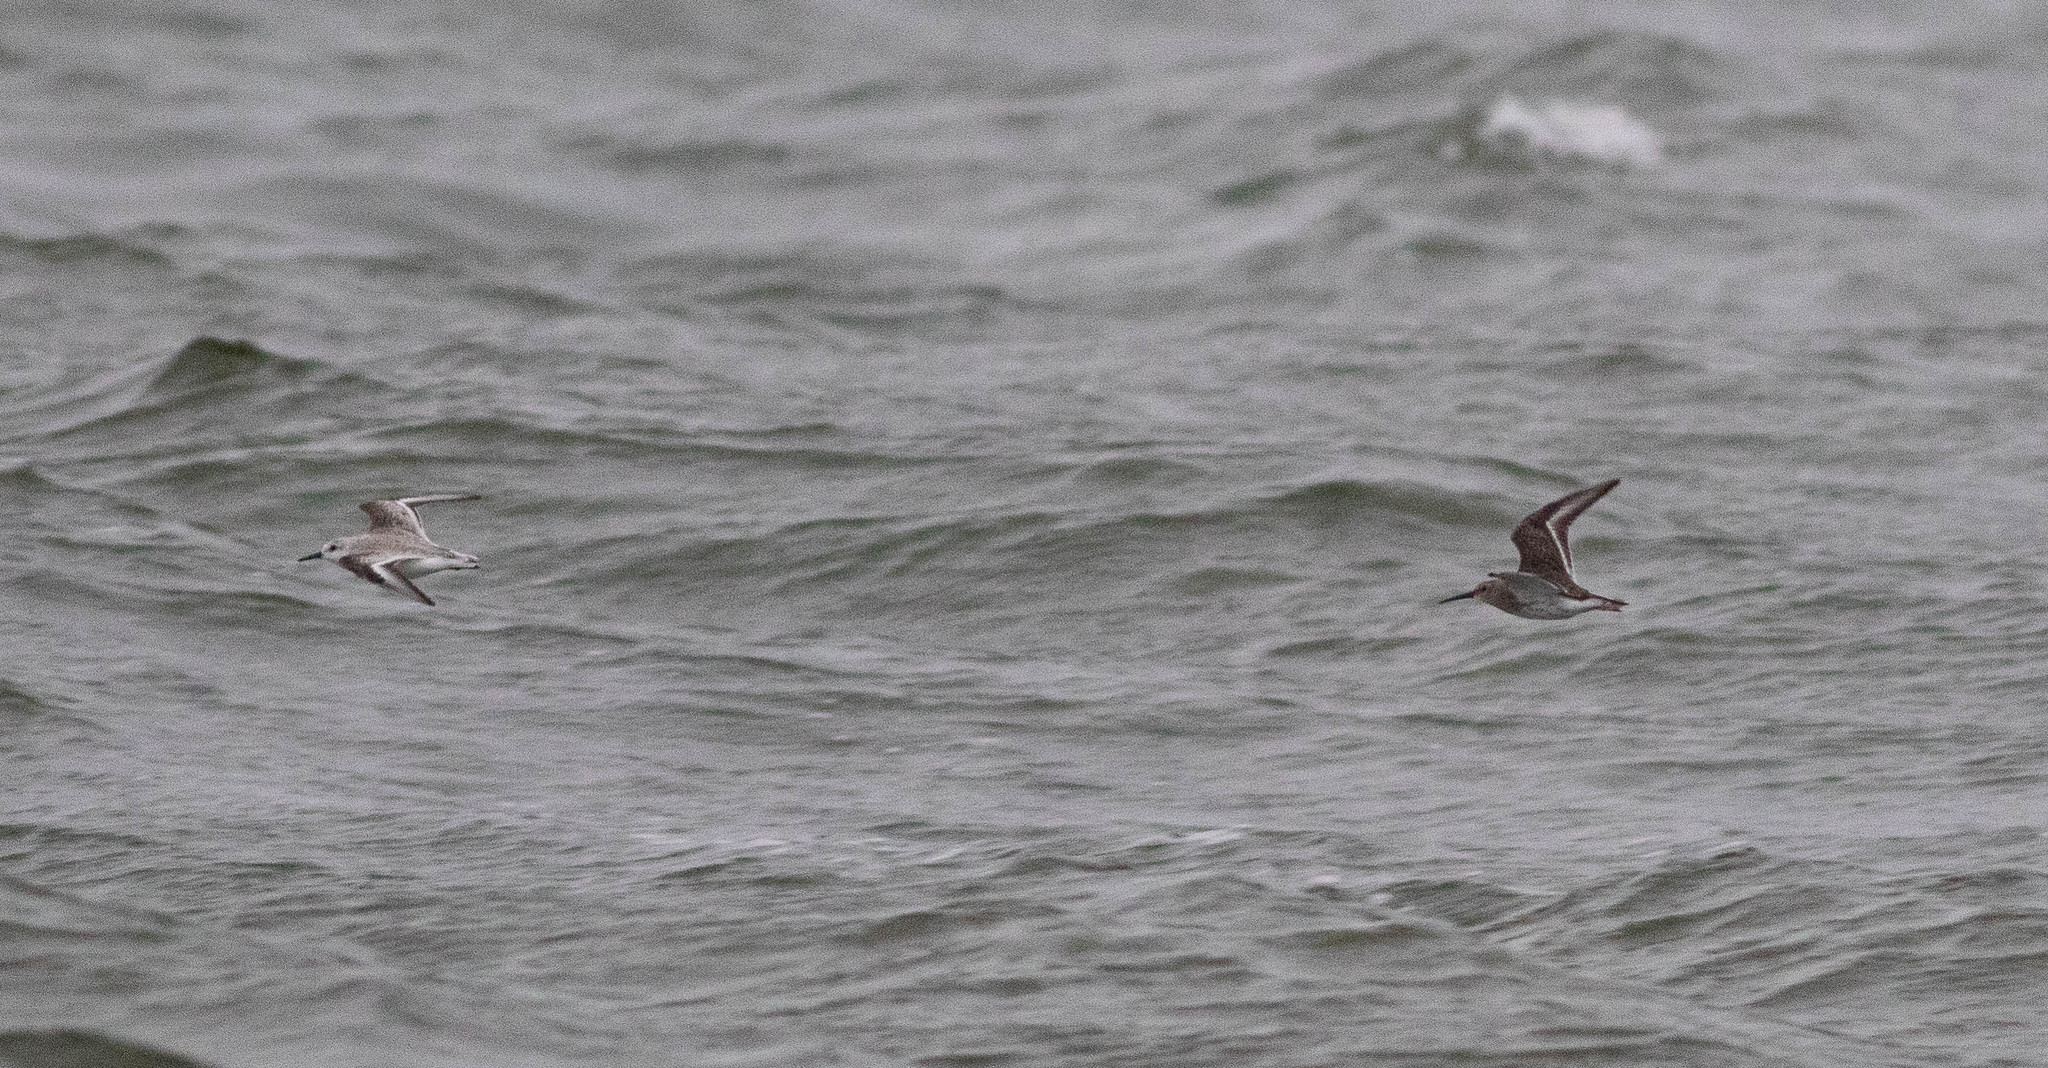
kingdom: Animalia
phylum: Chordata
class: Aves
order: Charadriiformes
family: Scolopacidae
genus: Calidris
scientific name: Calidris alba
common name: Sanderling
